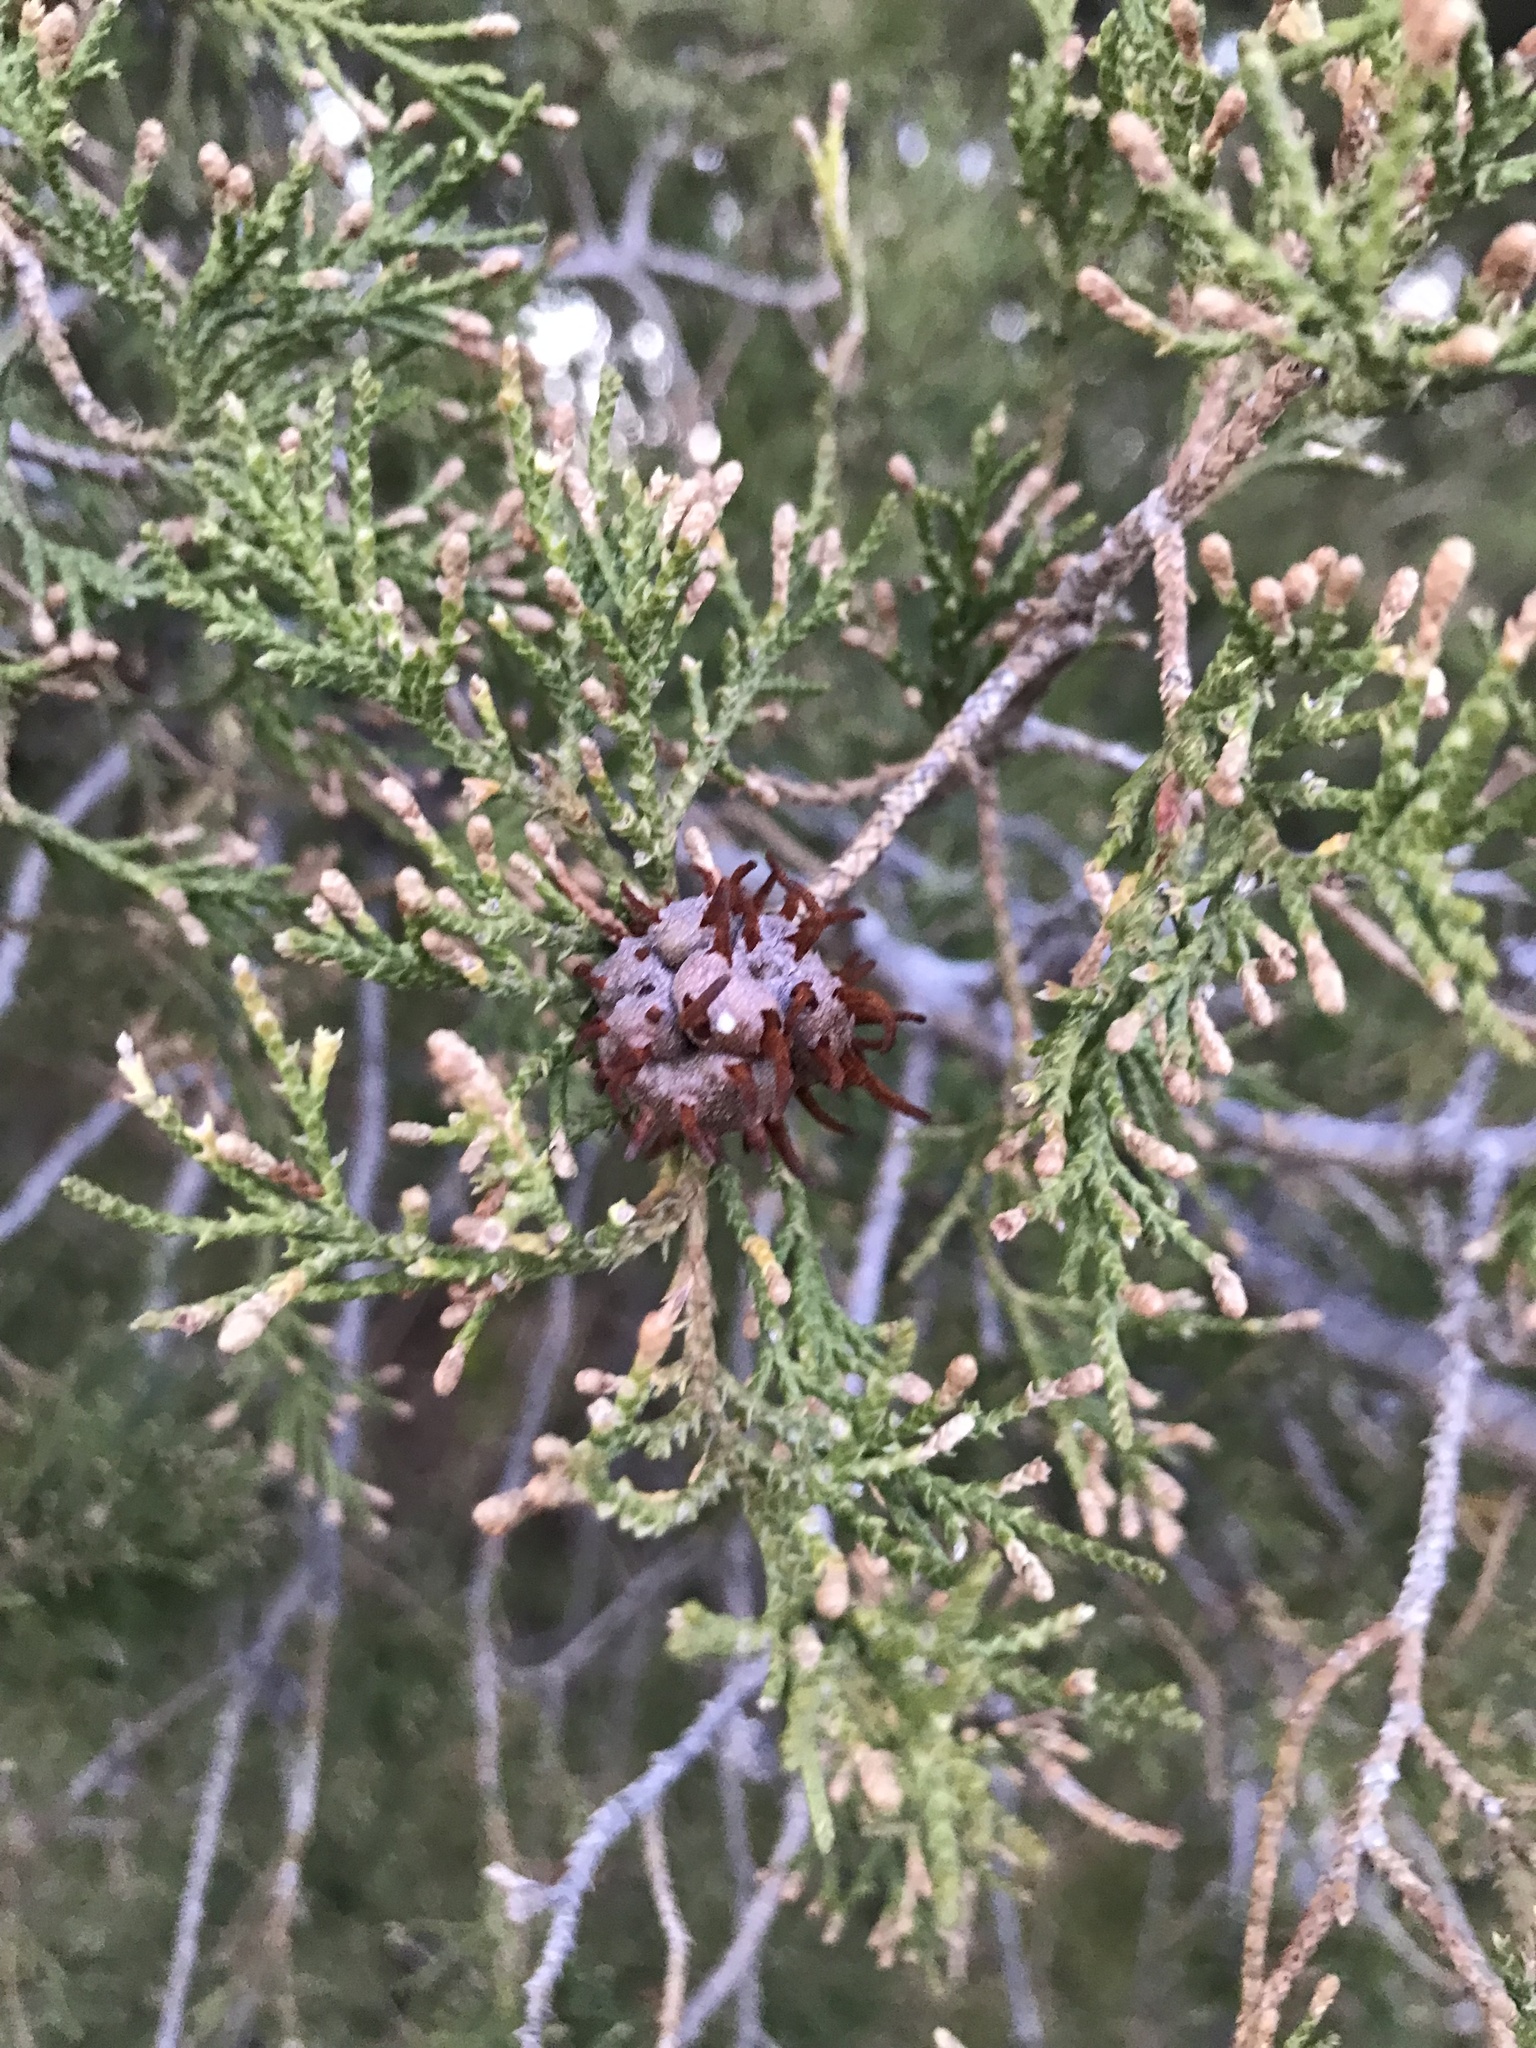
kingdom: Fungi
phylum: Basidiomycota
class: Pucciniomycetes
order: Pucciniales
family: Gymnosporangiaceae
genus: Gymnosporangium
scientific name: Gymnosporangium juniperi-virginianae
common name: Juniper-apple rust
